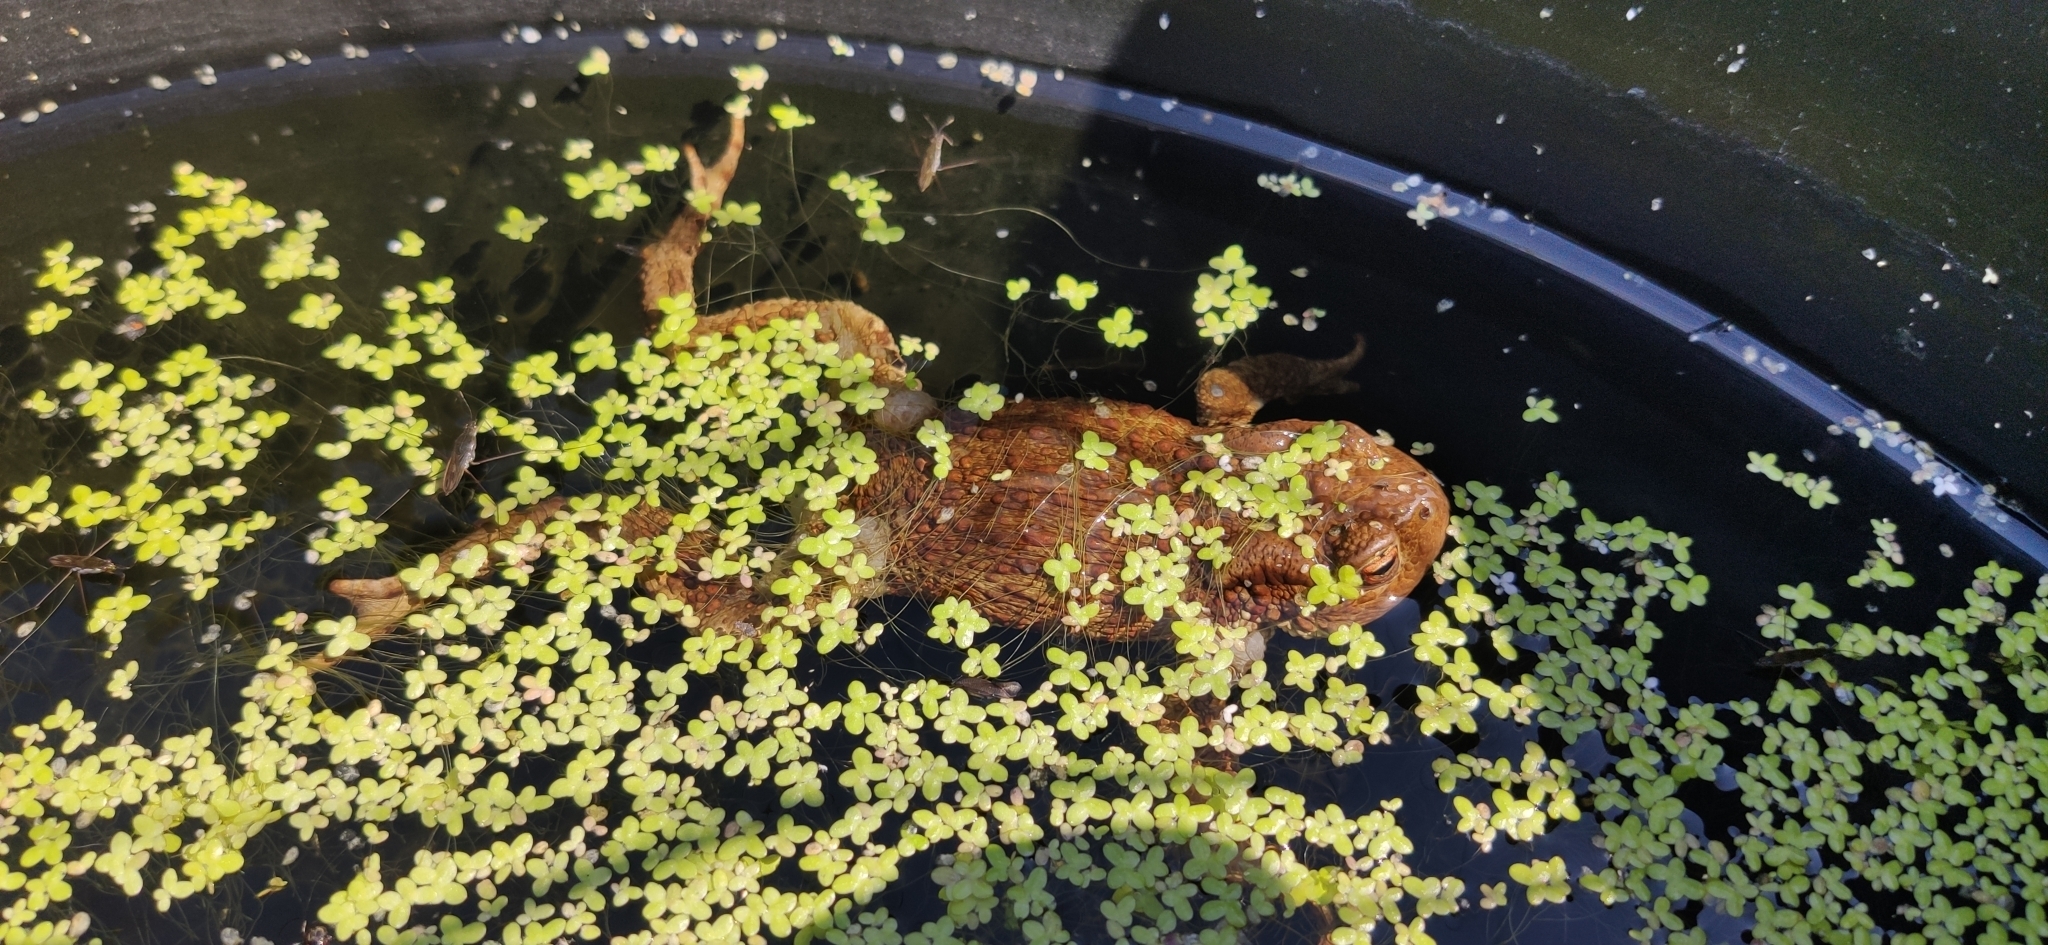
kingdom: Animalia
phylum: Chordata
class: Amphibia
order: Anura
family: Bufonidae
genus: Bufo
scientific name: Bufo bufo
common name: Common toad
